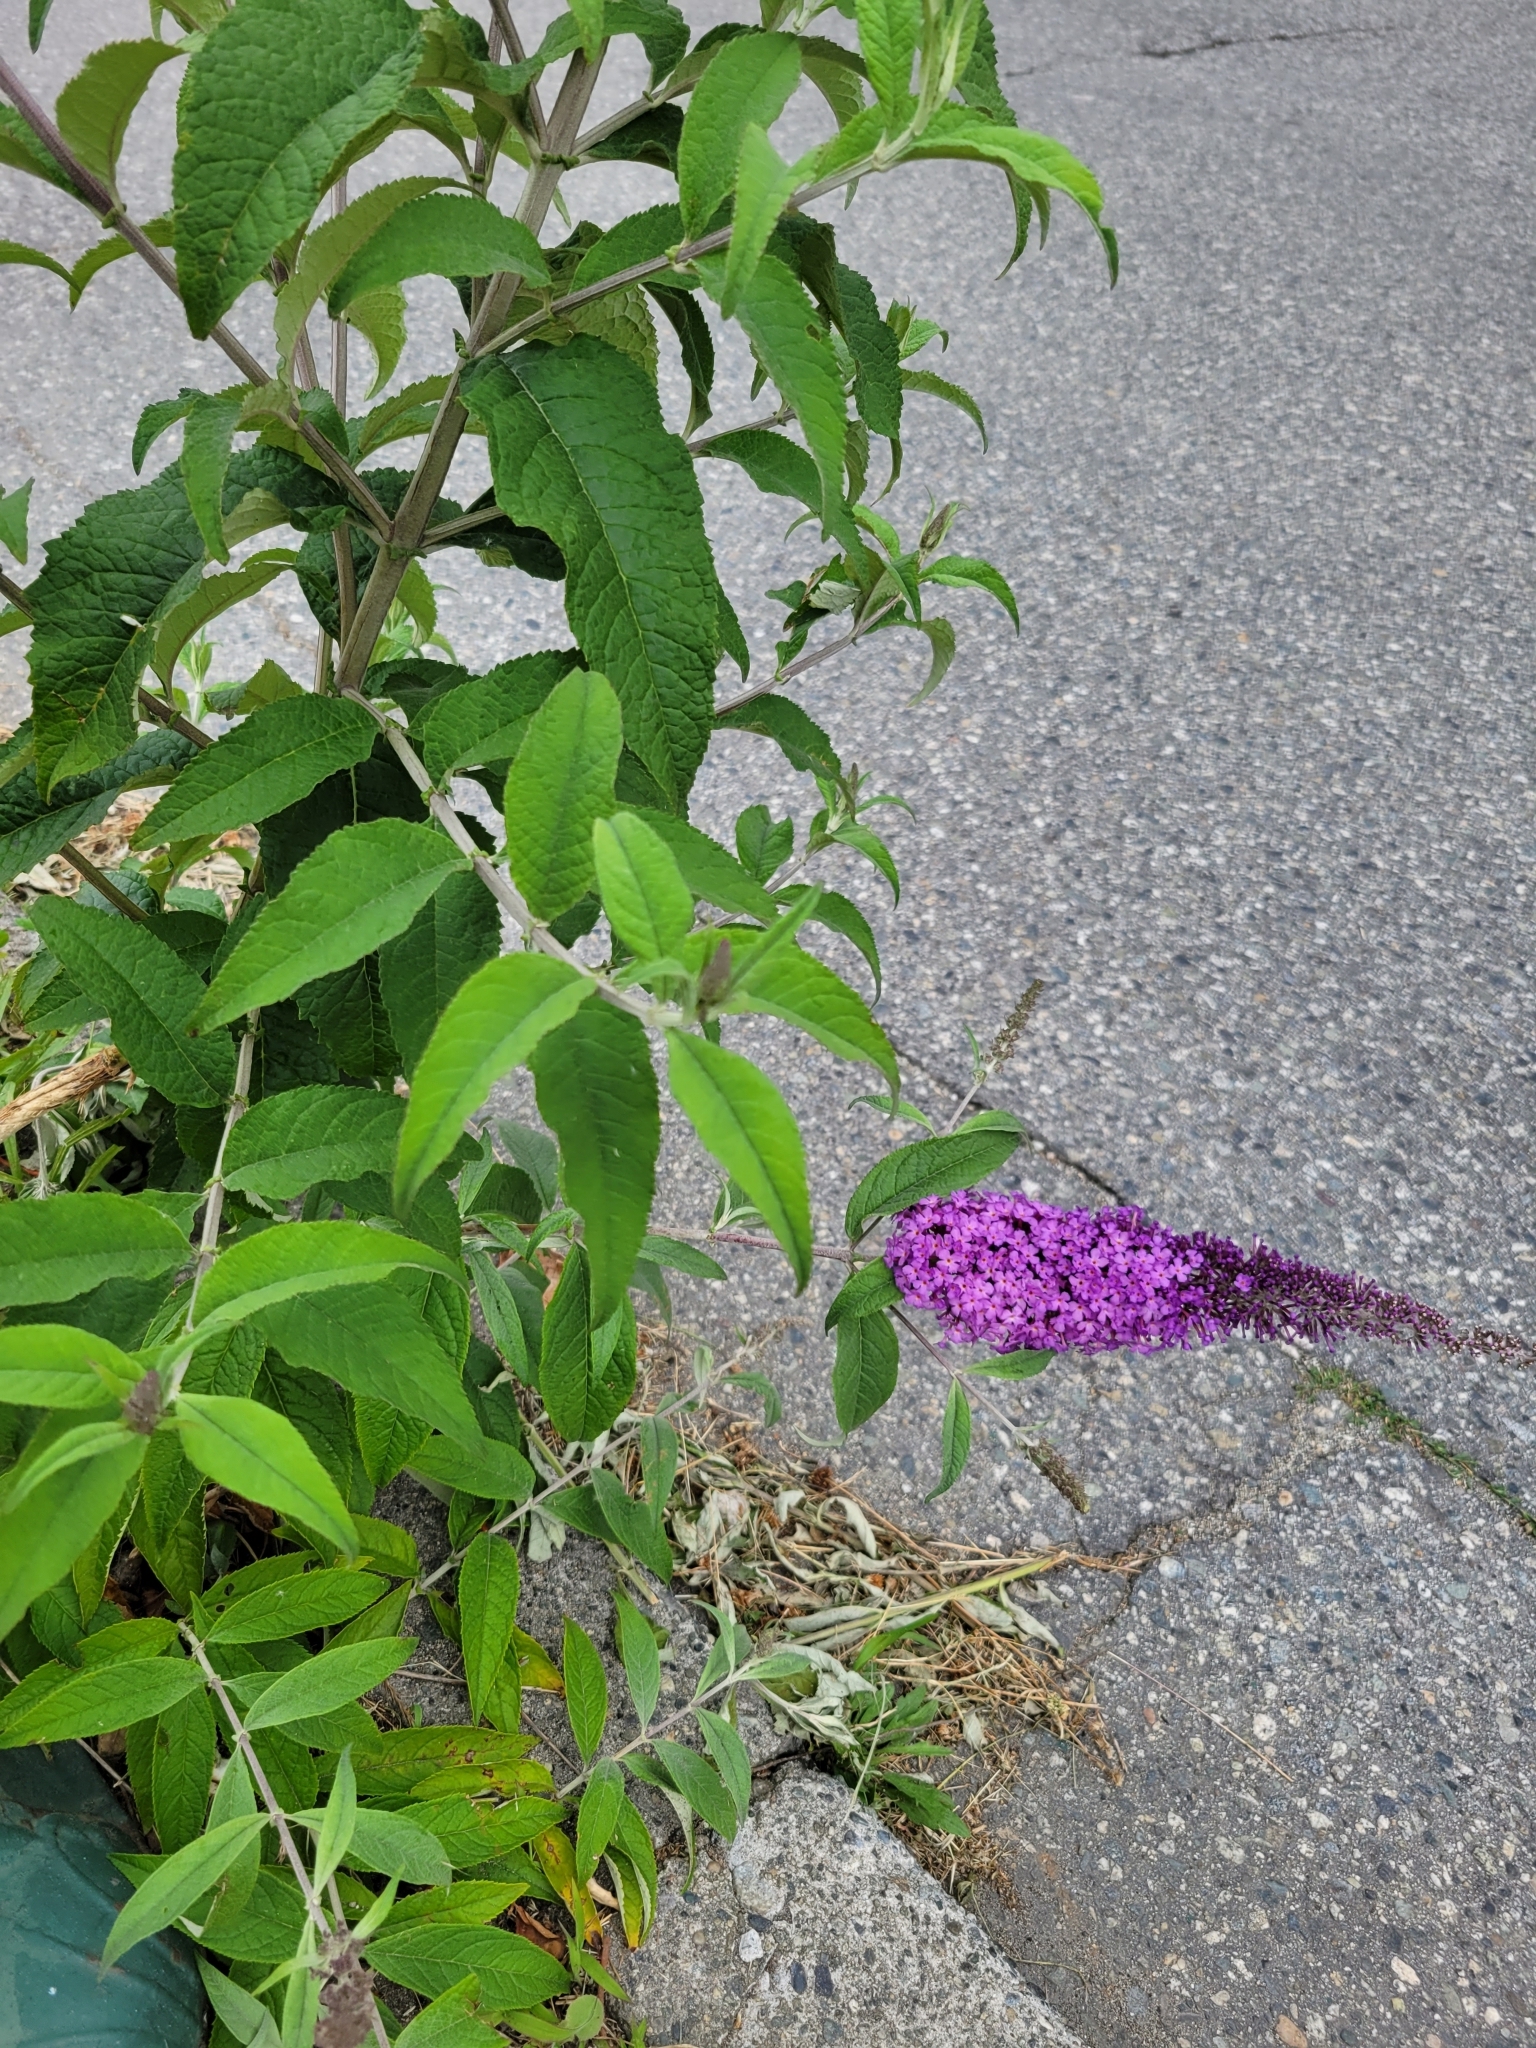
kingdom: Plantae
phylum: Tracheophyta
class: Magnoliopsida
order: Lamiales
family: Scrophulariaceae
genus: Buddleja
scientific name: Buddleja davidii
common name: Butterfly-bush
